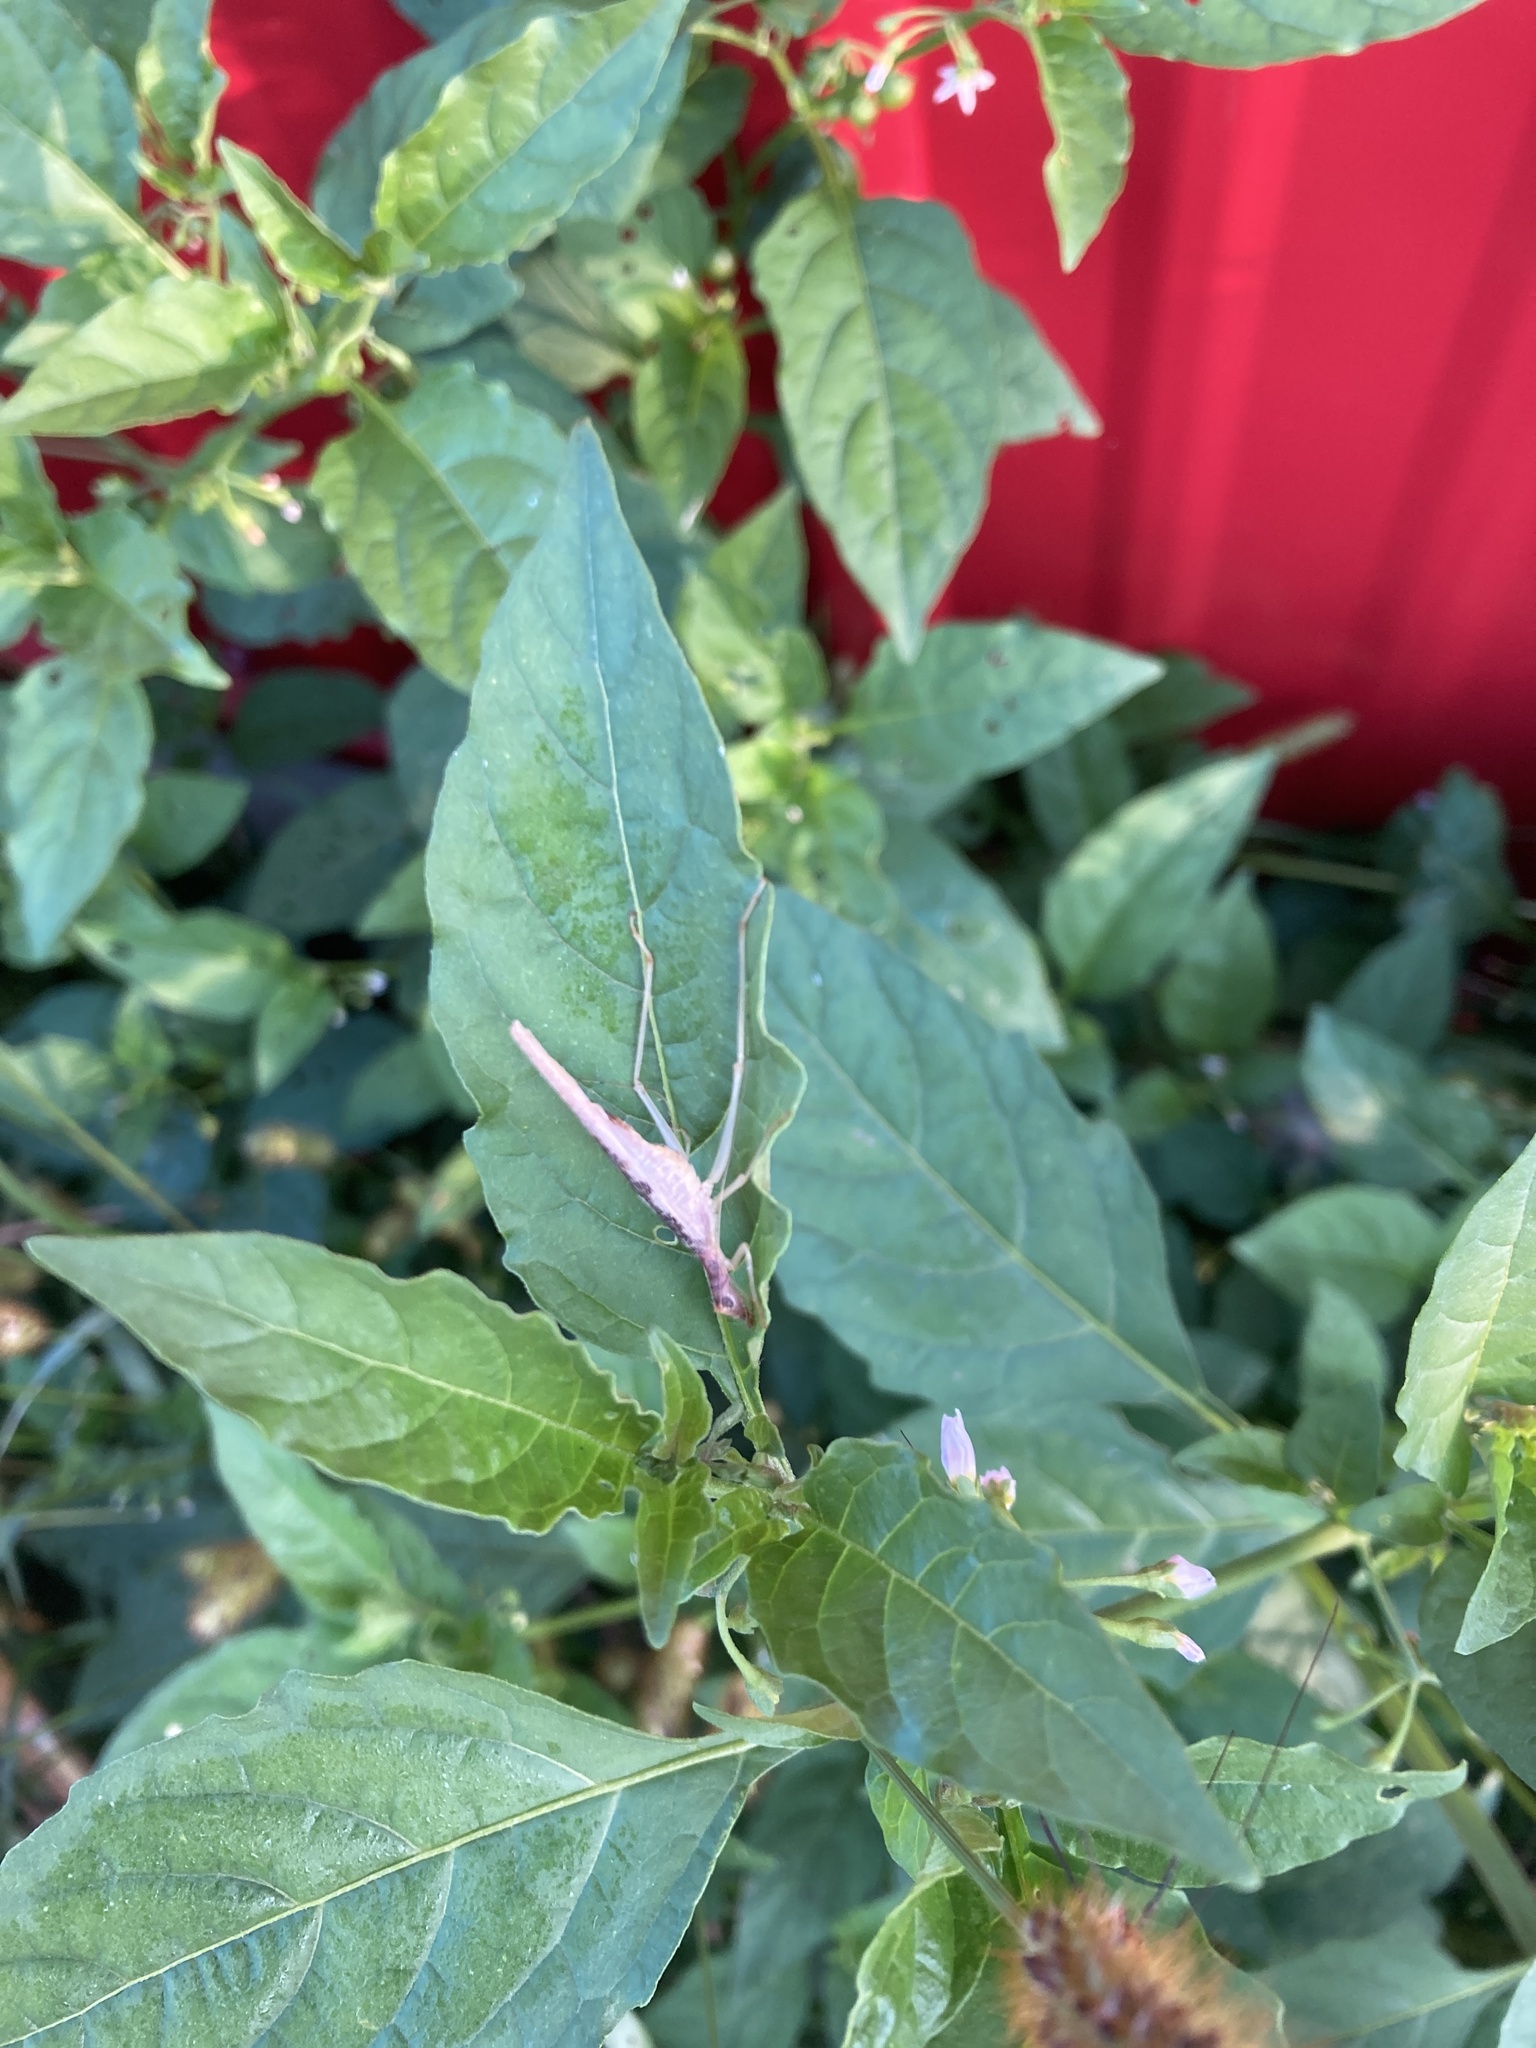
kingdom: Animalia
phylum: Arthropoda
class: Insecta
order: Orthoptera
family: Gryllidae
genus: Neoxabea
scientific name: Neoxabea bipunctata
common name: Two-spotted tree cricket
